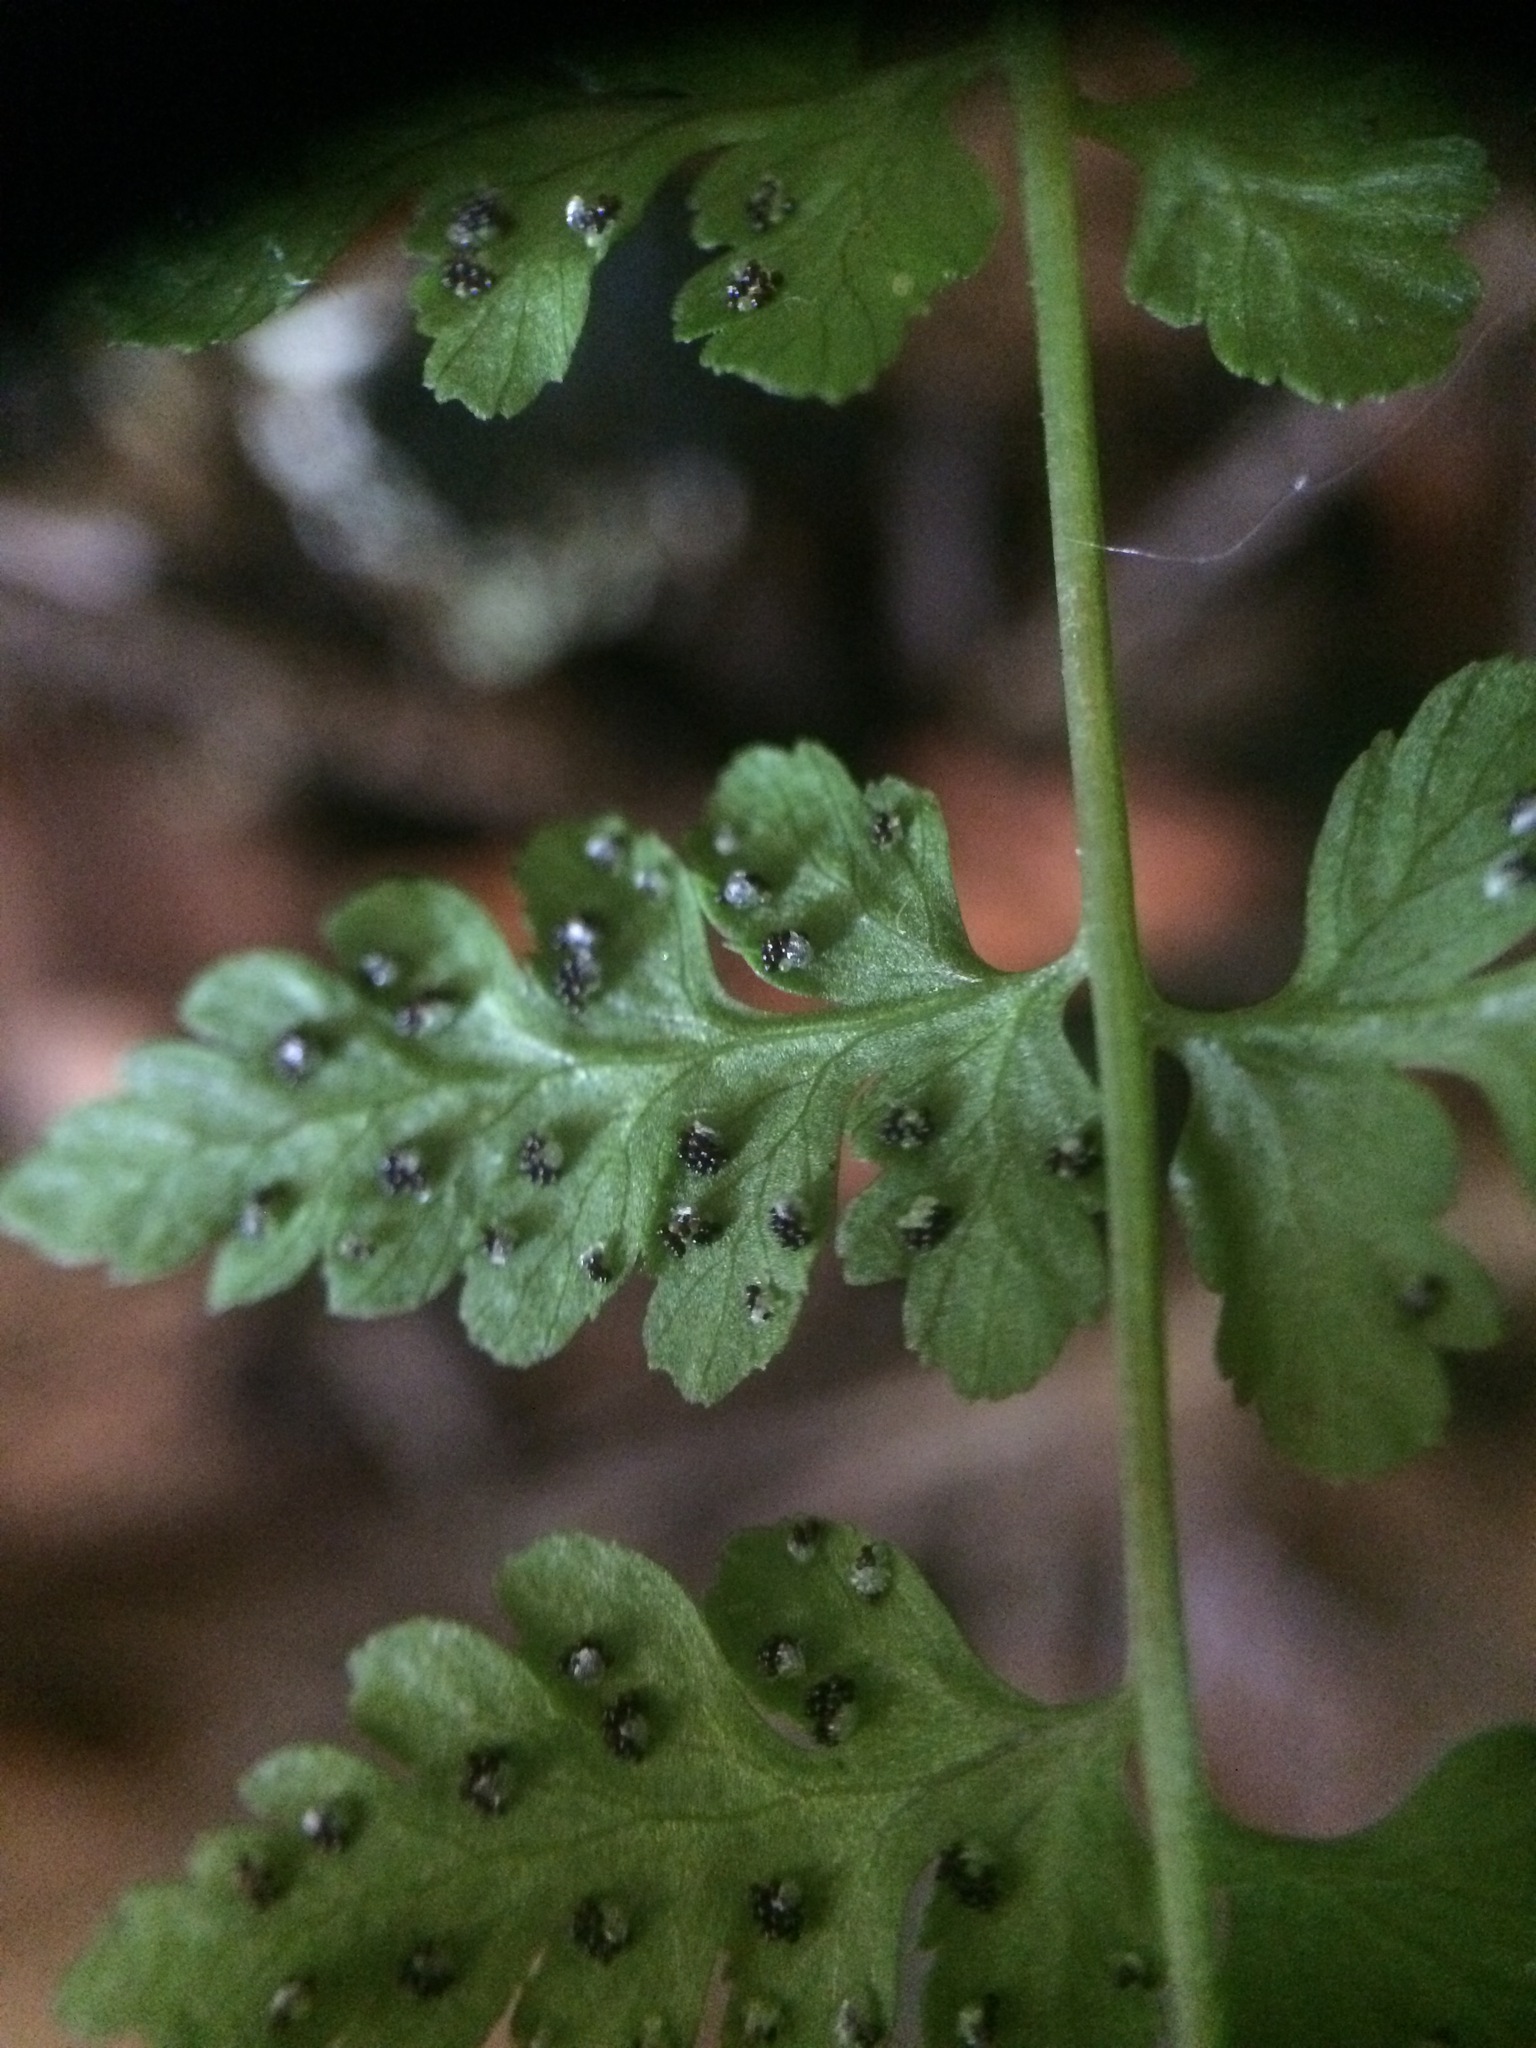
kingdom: Plantae
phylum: Tracheophyta
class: Polypodiopsida
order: Polypodiales
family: Cystopteridaceae
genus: Cystopteris
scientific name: Cystopteris fragilis
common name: Brittle bladder fern
